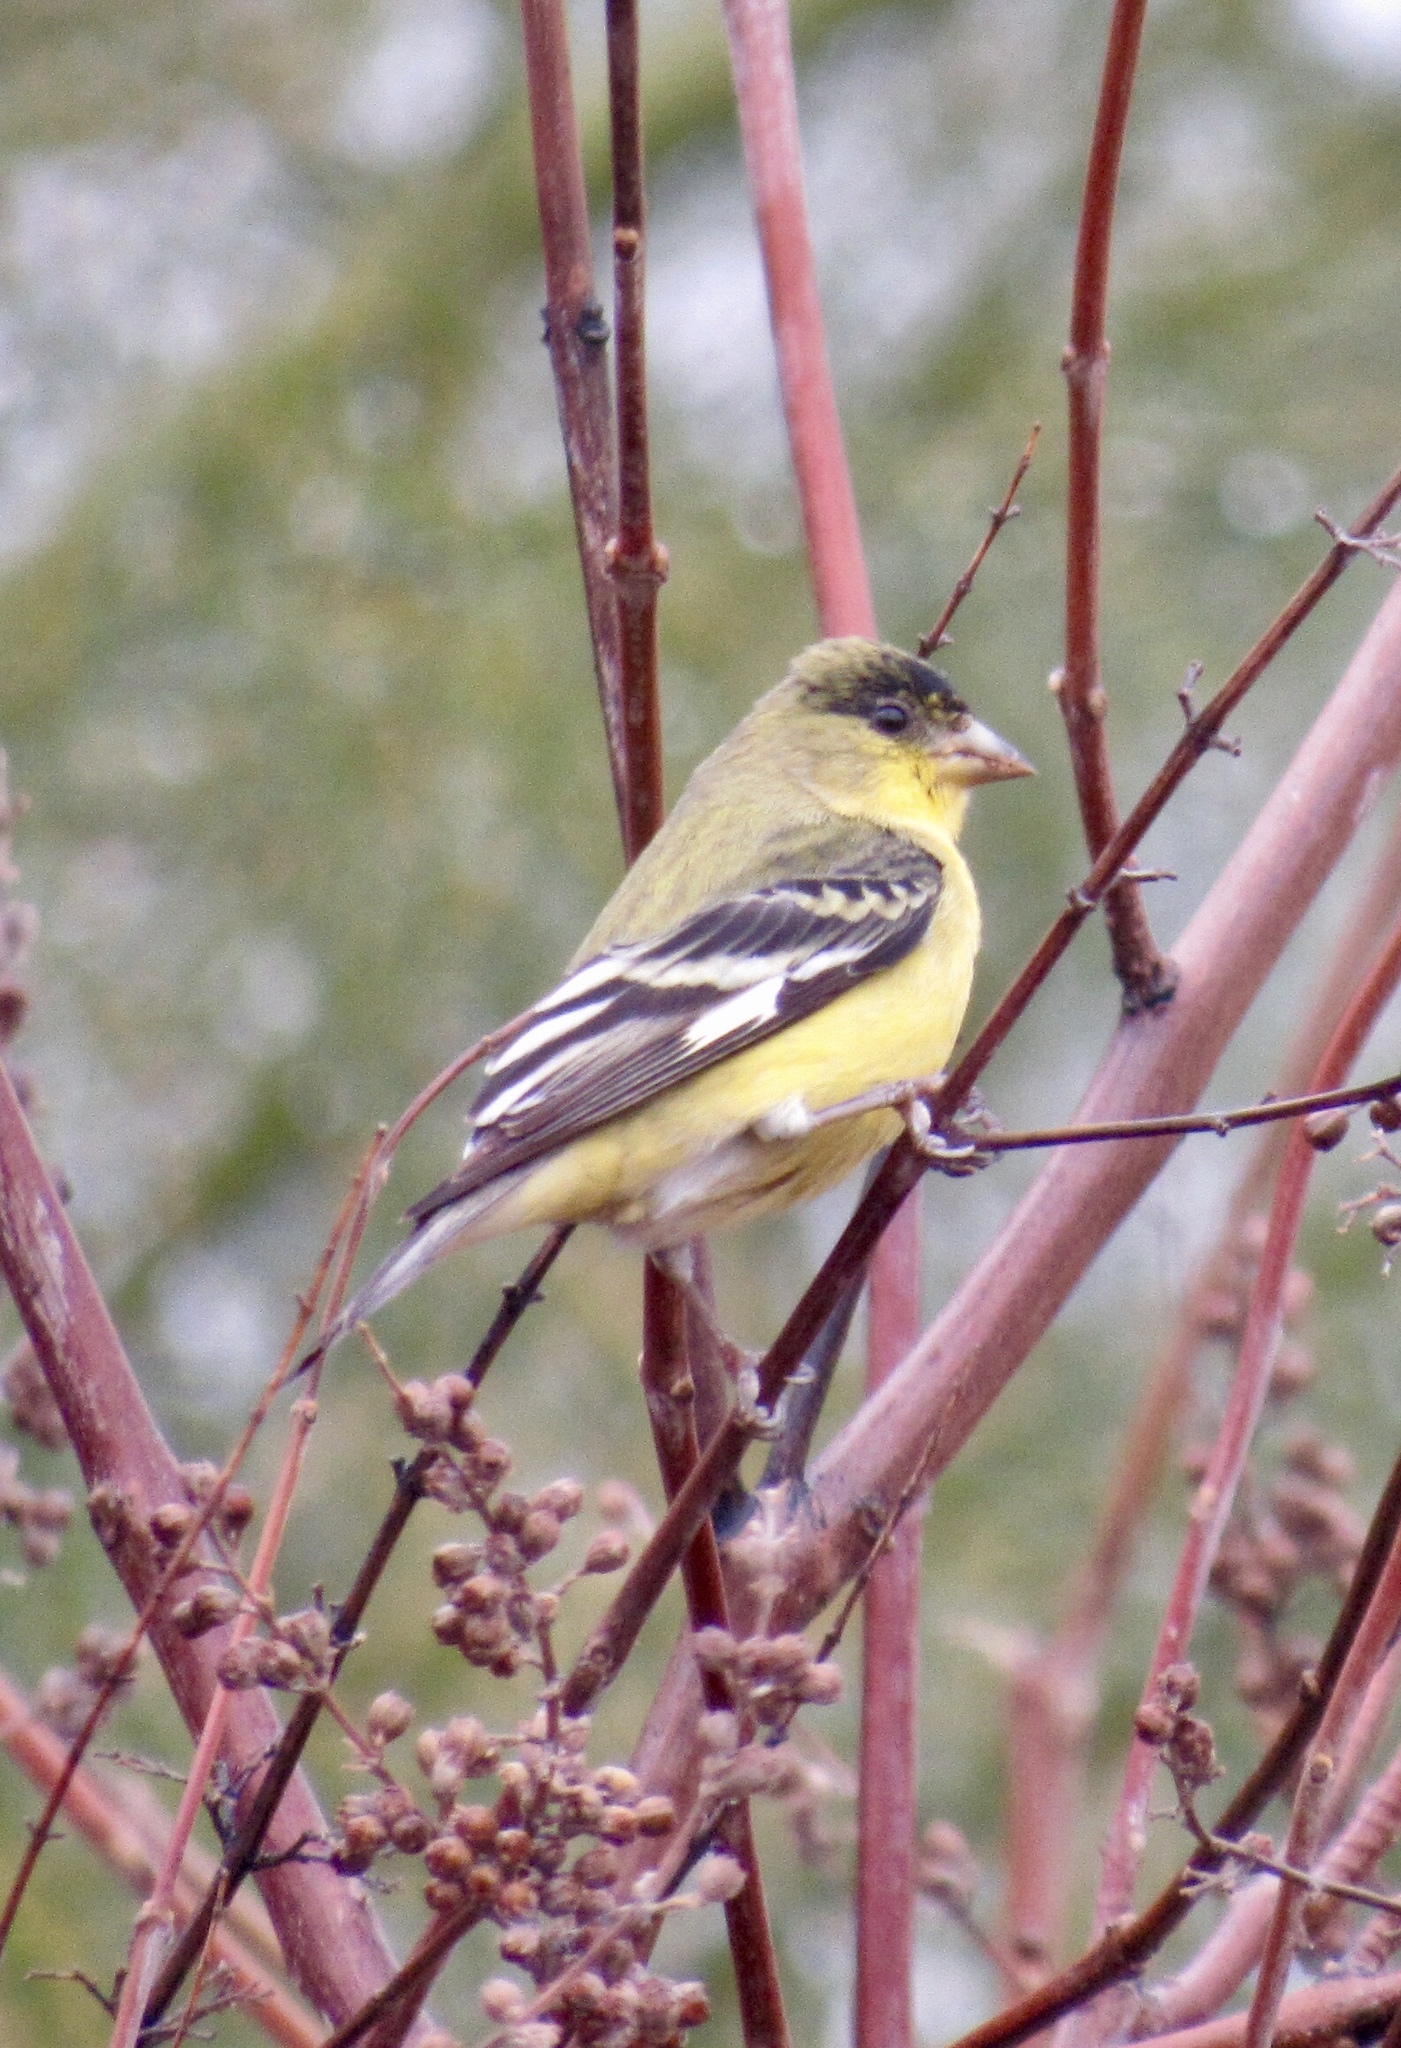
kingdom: Animalia
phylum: Chordata
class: Aves
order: Passeriformes
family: Fringillidae
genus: Spinus
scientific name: Spinus psaltria
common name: Lesser goldfinch
